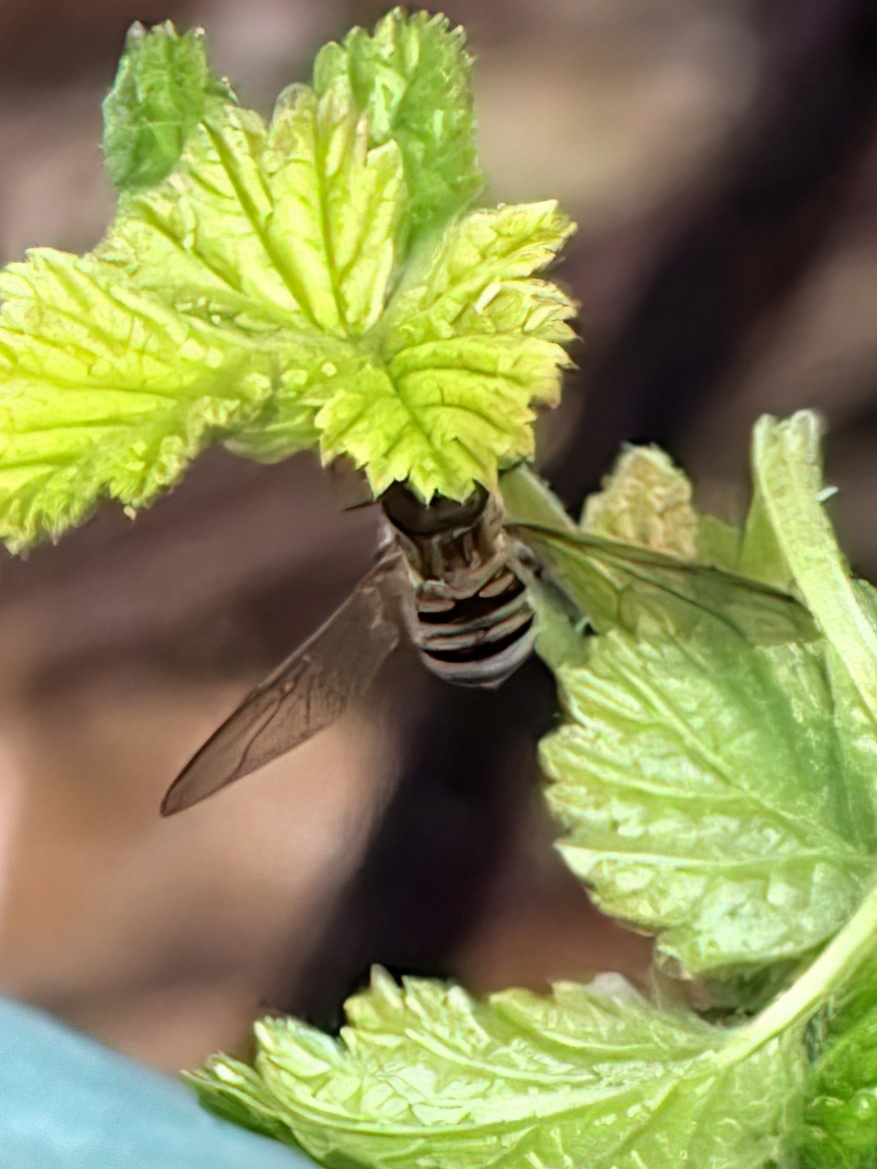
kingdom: Animalia
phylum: Arthropoda
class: Insecta
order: Diptera
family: Syrphidae
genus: Episyrphus
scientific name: Episyrphus balteatus
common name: Marmalade hoverfly
